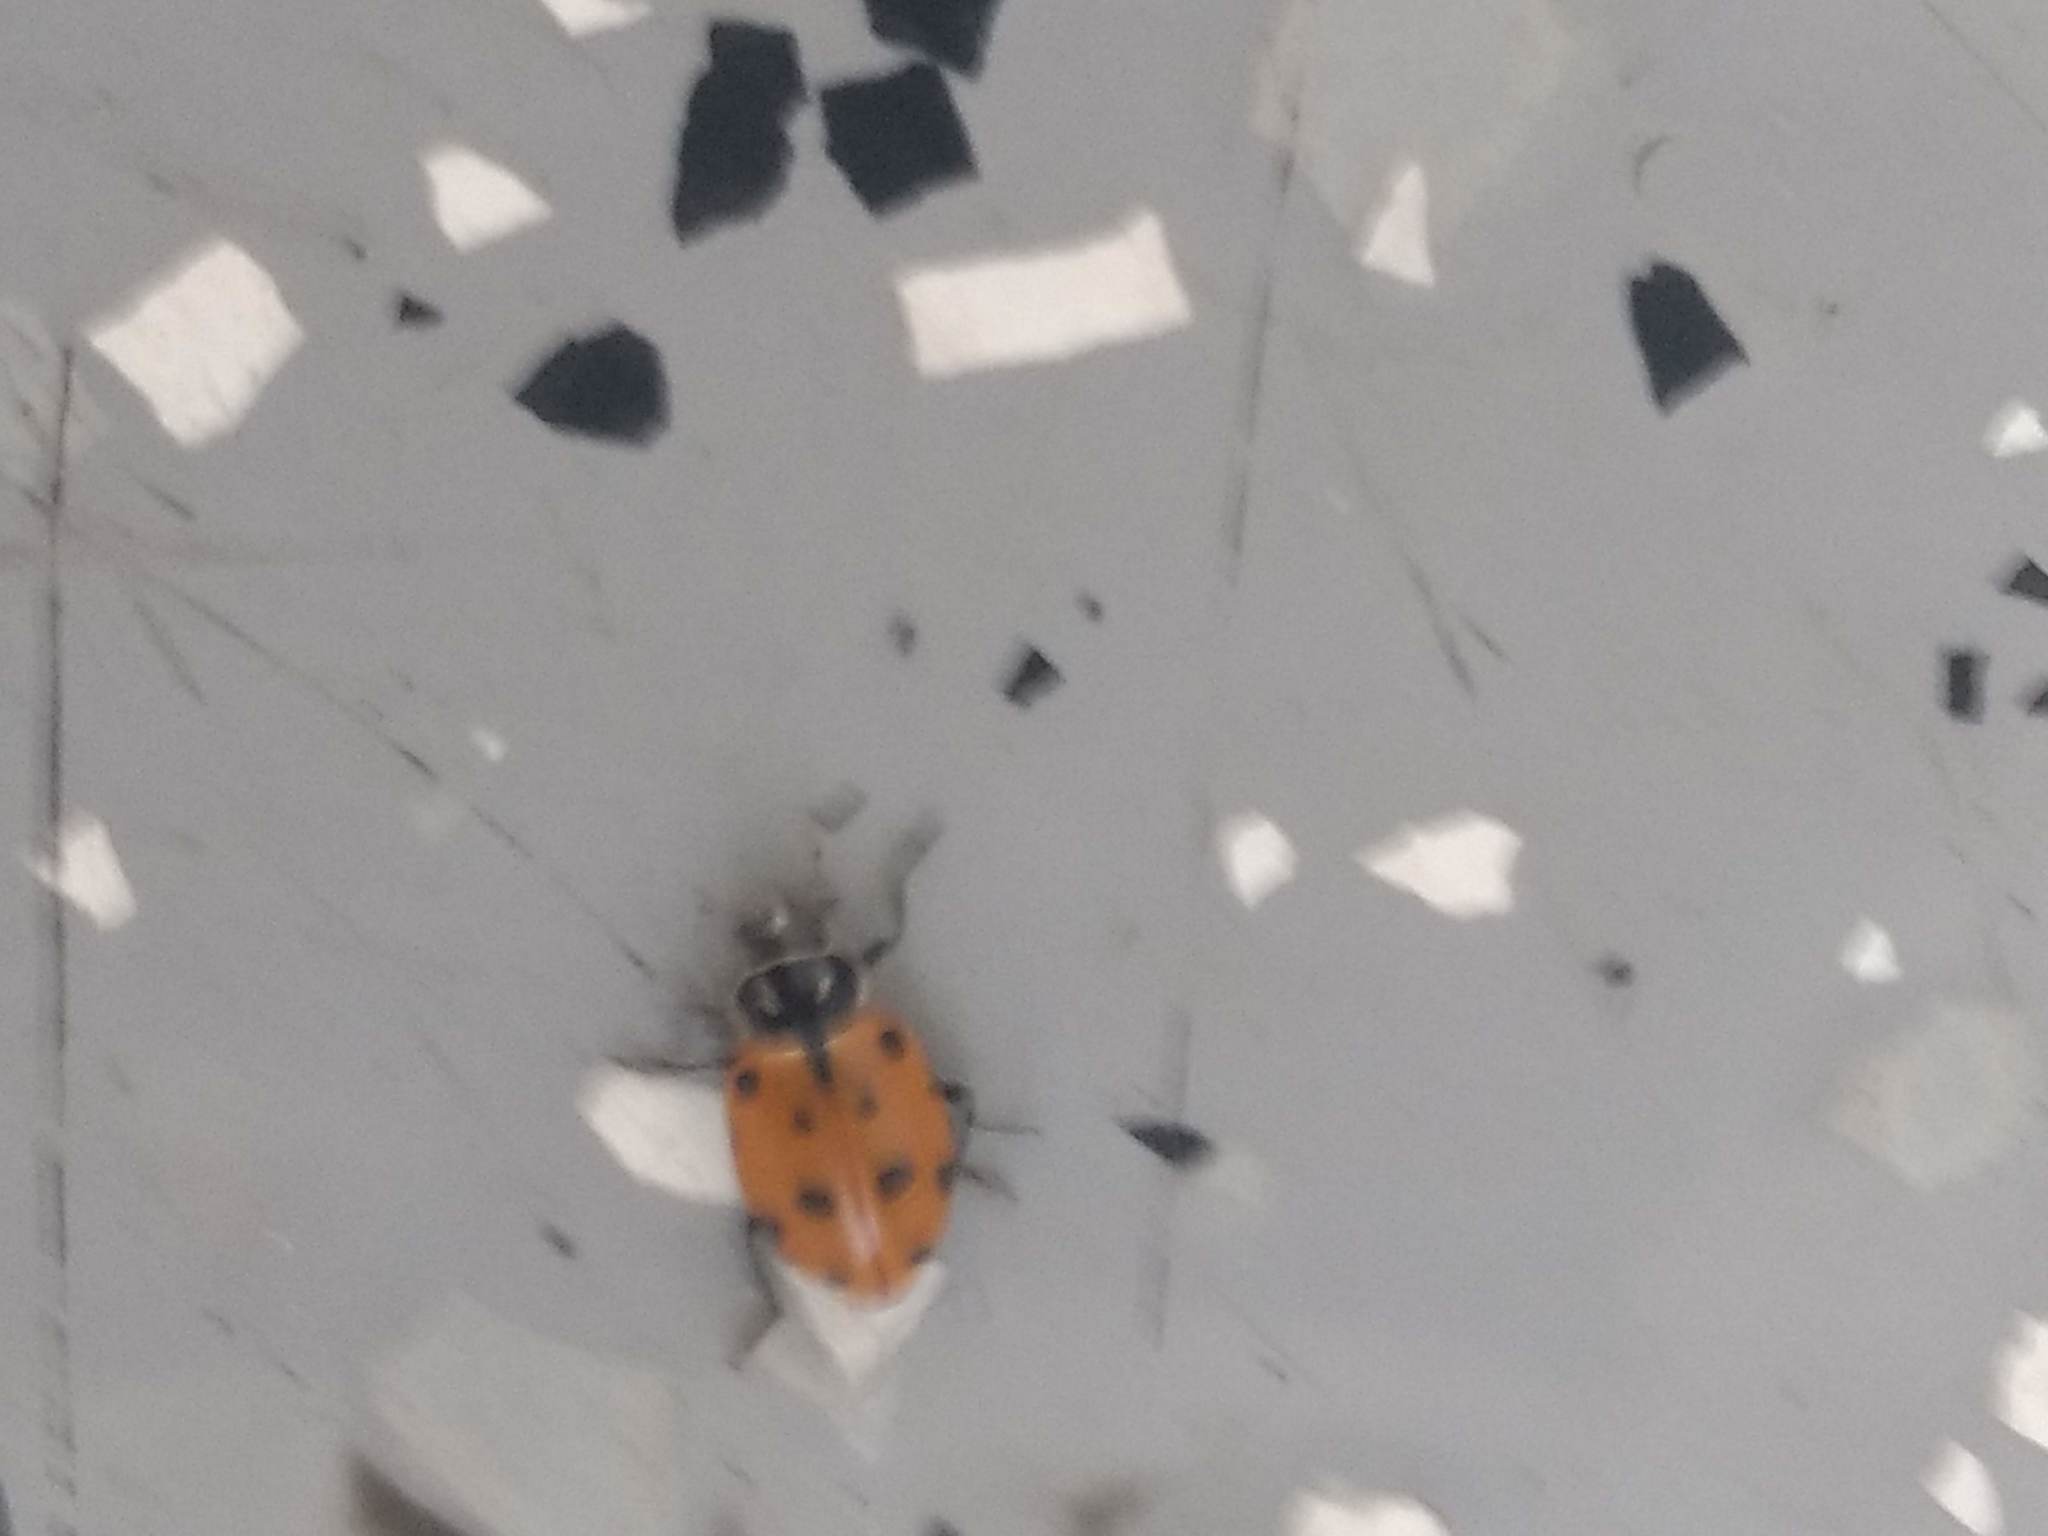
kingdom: Animalia
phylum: Arthropoda
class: Insecta
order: Coleoptera
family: Coccinellidae
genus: Hippodamia
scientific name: Hippodamia convergens
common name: Convergent lady beetle
